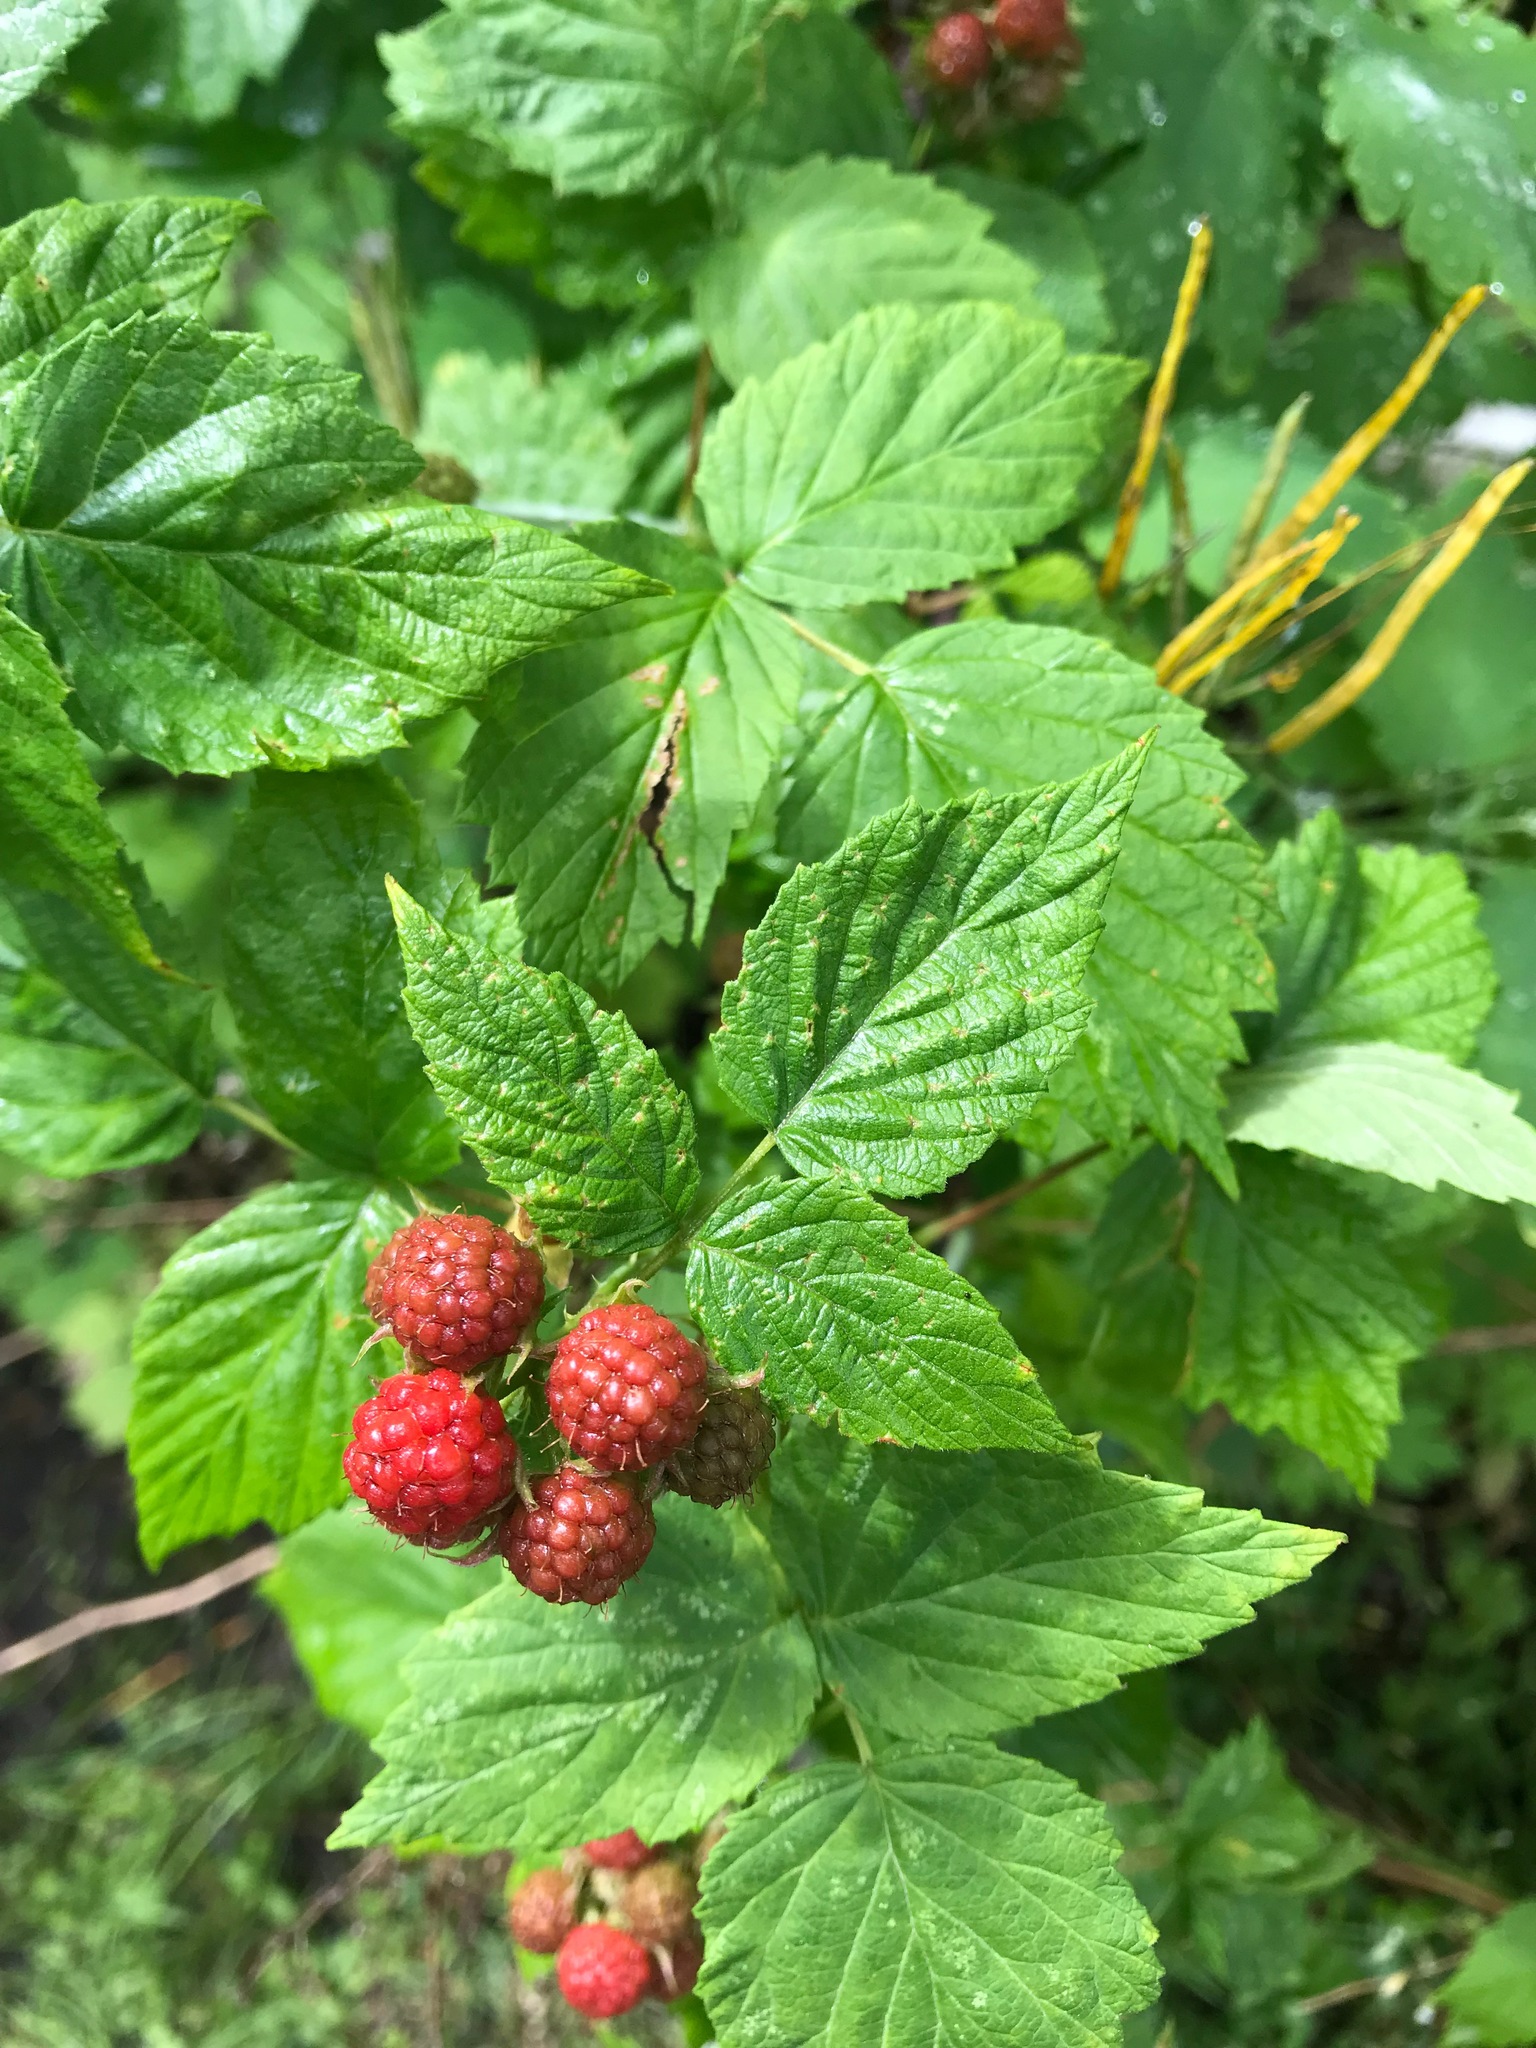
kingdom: Plantae
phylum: Tracheophyta
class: Magnoliopsida
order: Rosales
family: Rosaceae
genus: Rubus
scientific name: Rubus occidentalis
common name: Black raspberry
